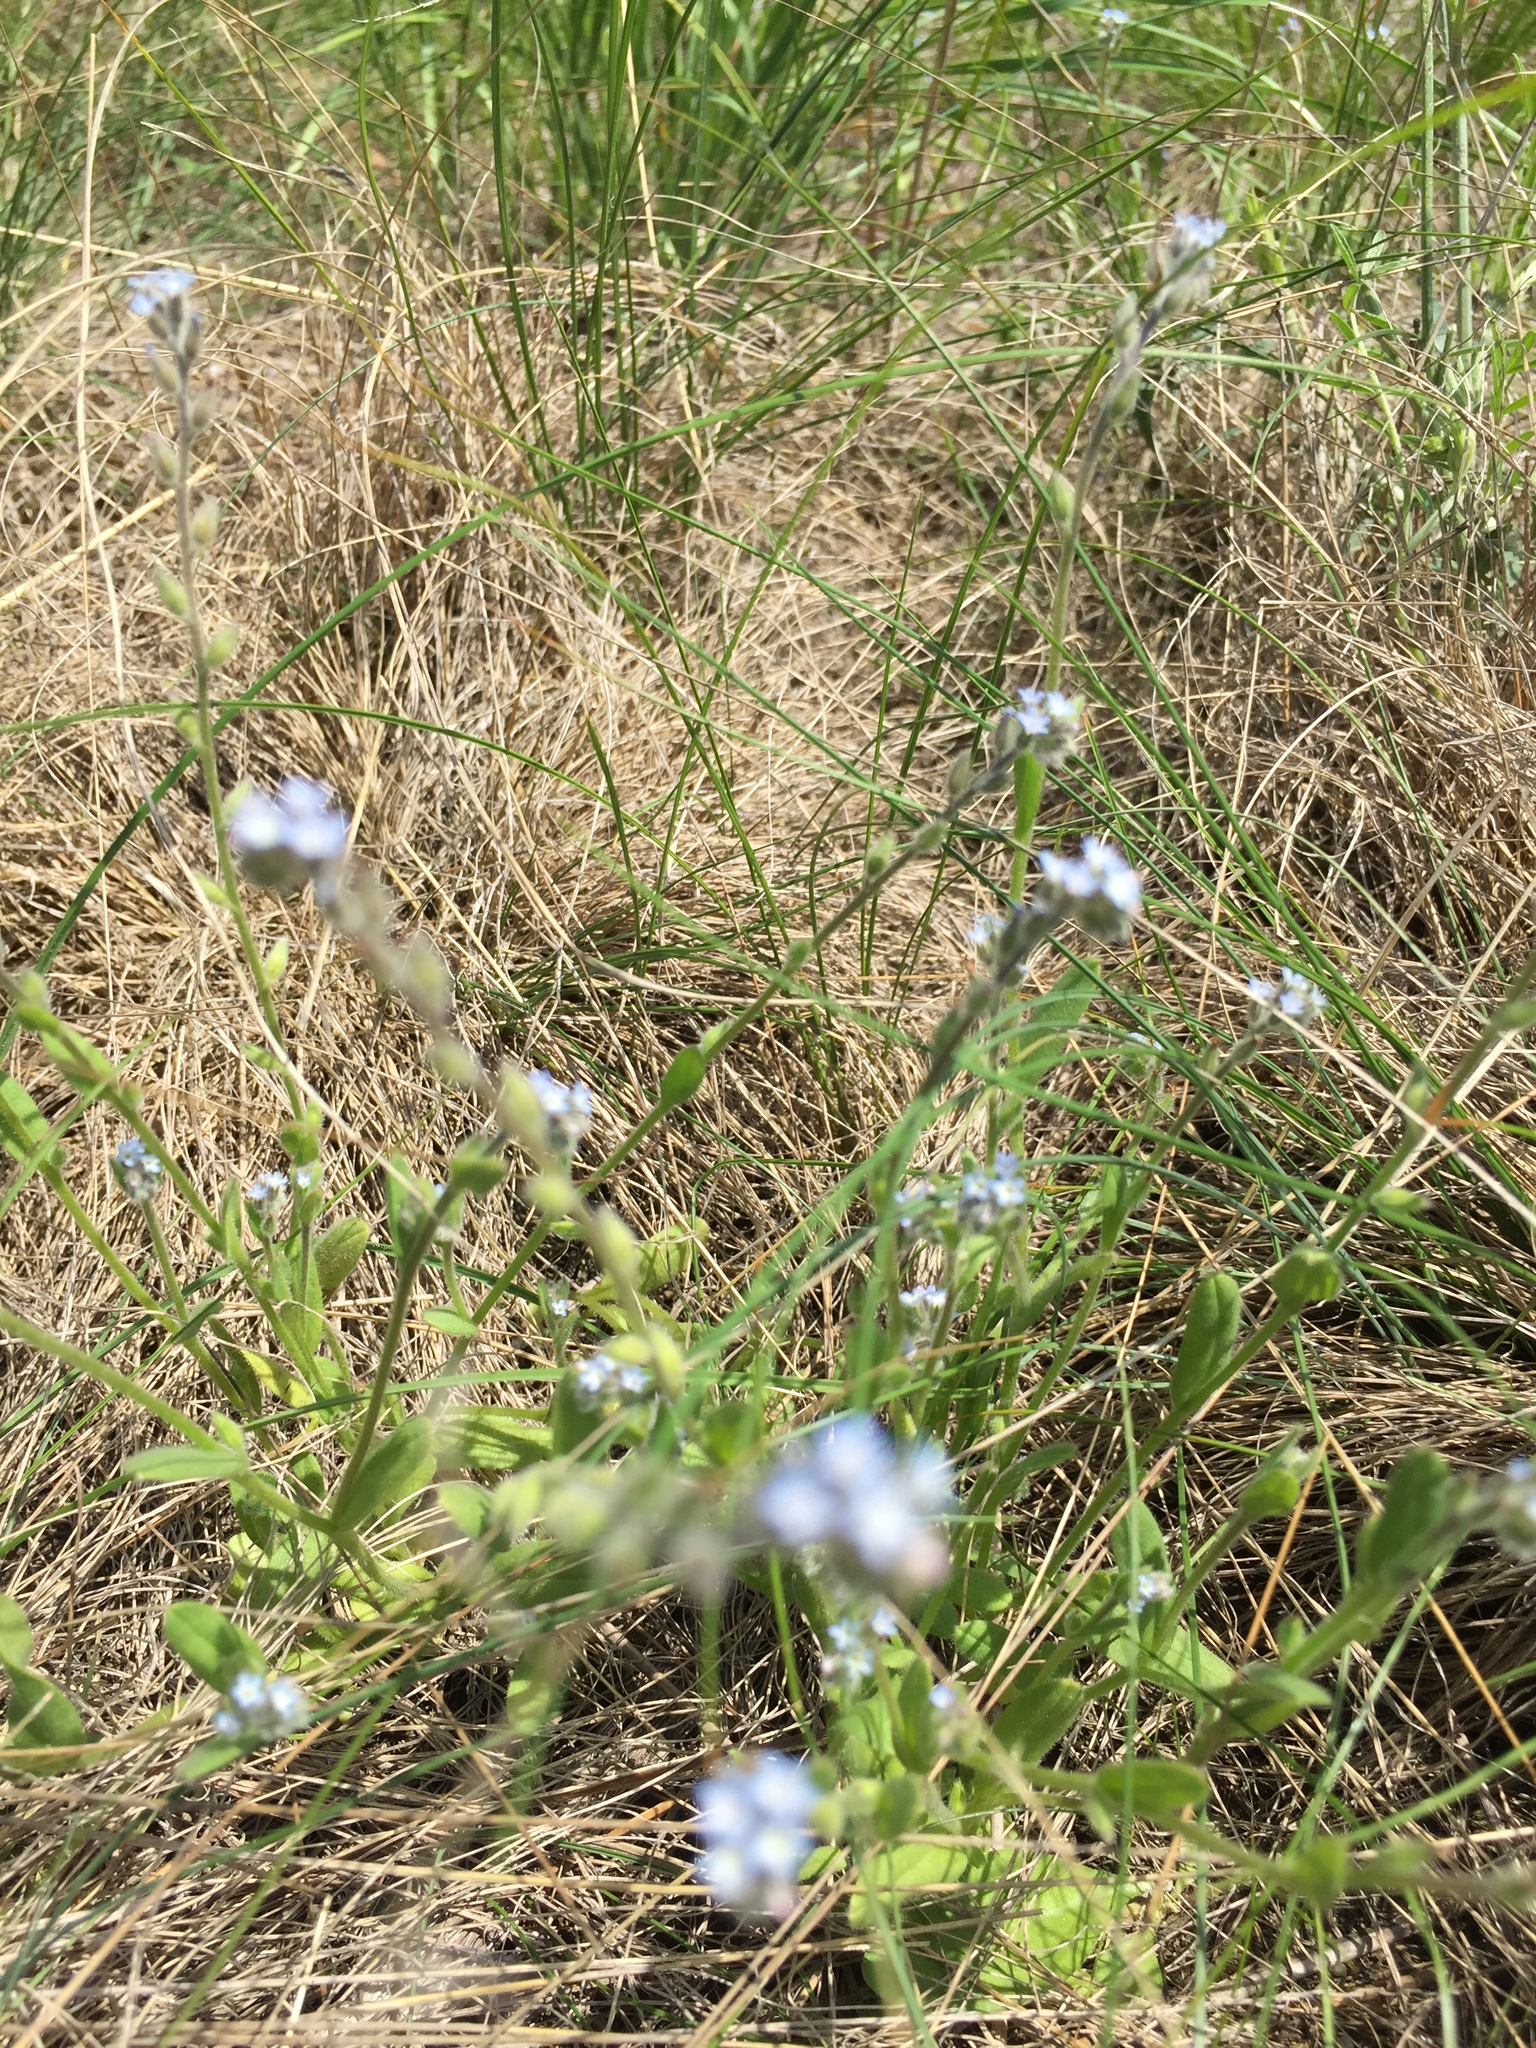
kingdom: Plantae
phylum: Tracheophyta
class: Magnoliopsida
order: Boraginales
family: Boraginaceae
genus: Myosotis
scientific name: Myosotis stricta
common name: Strict forget-me-not
